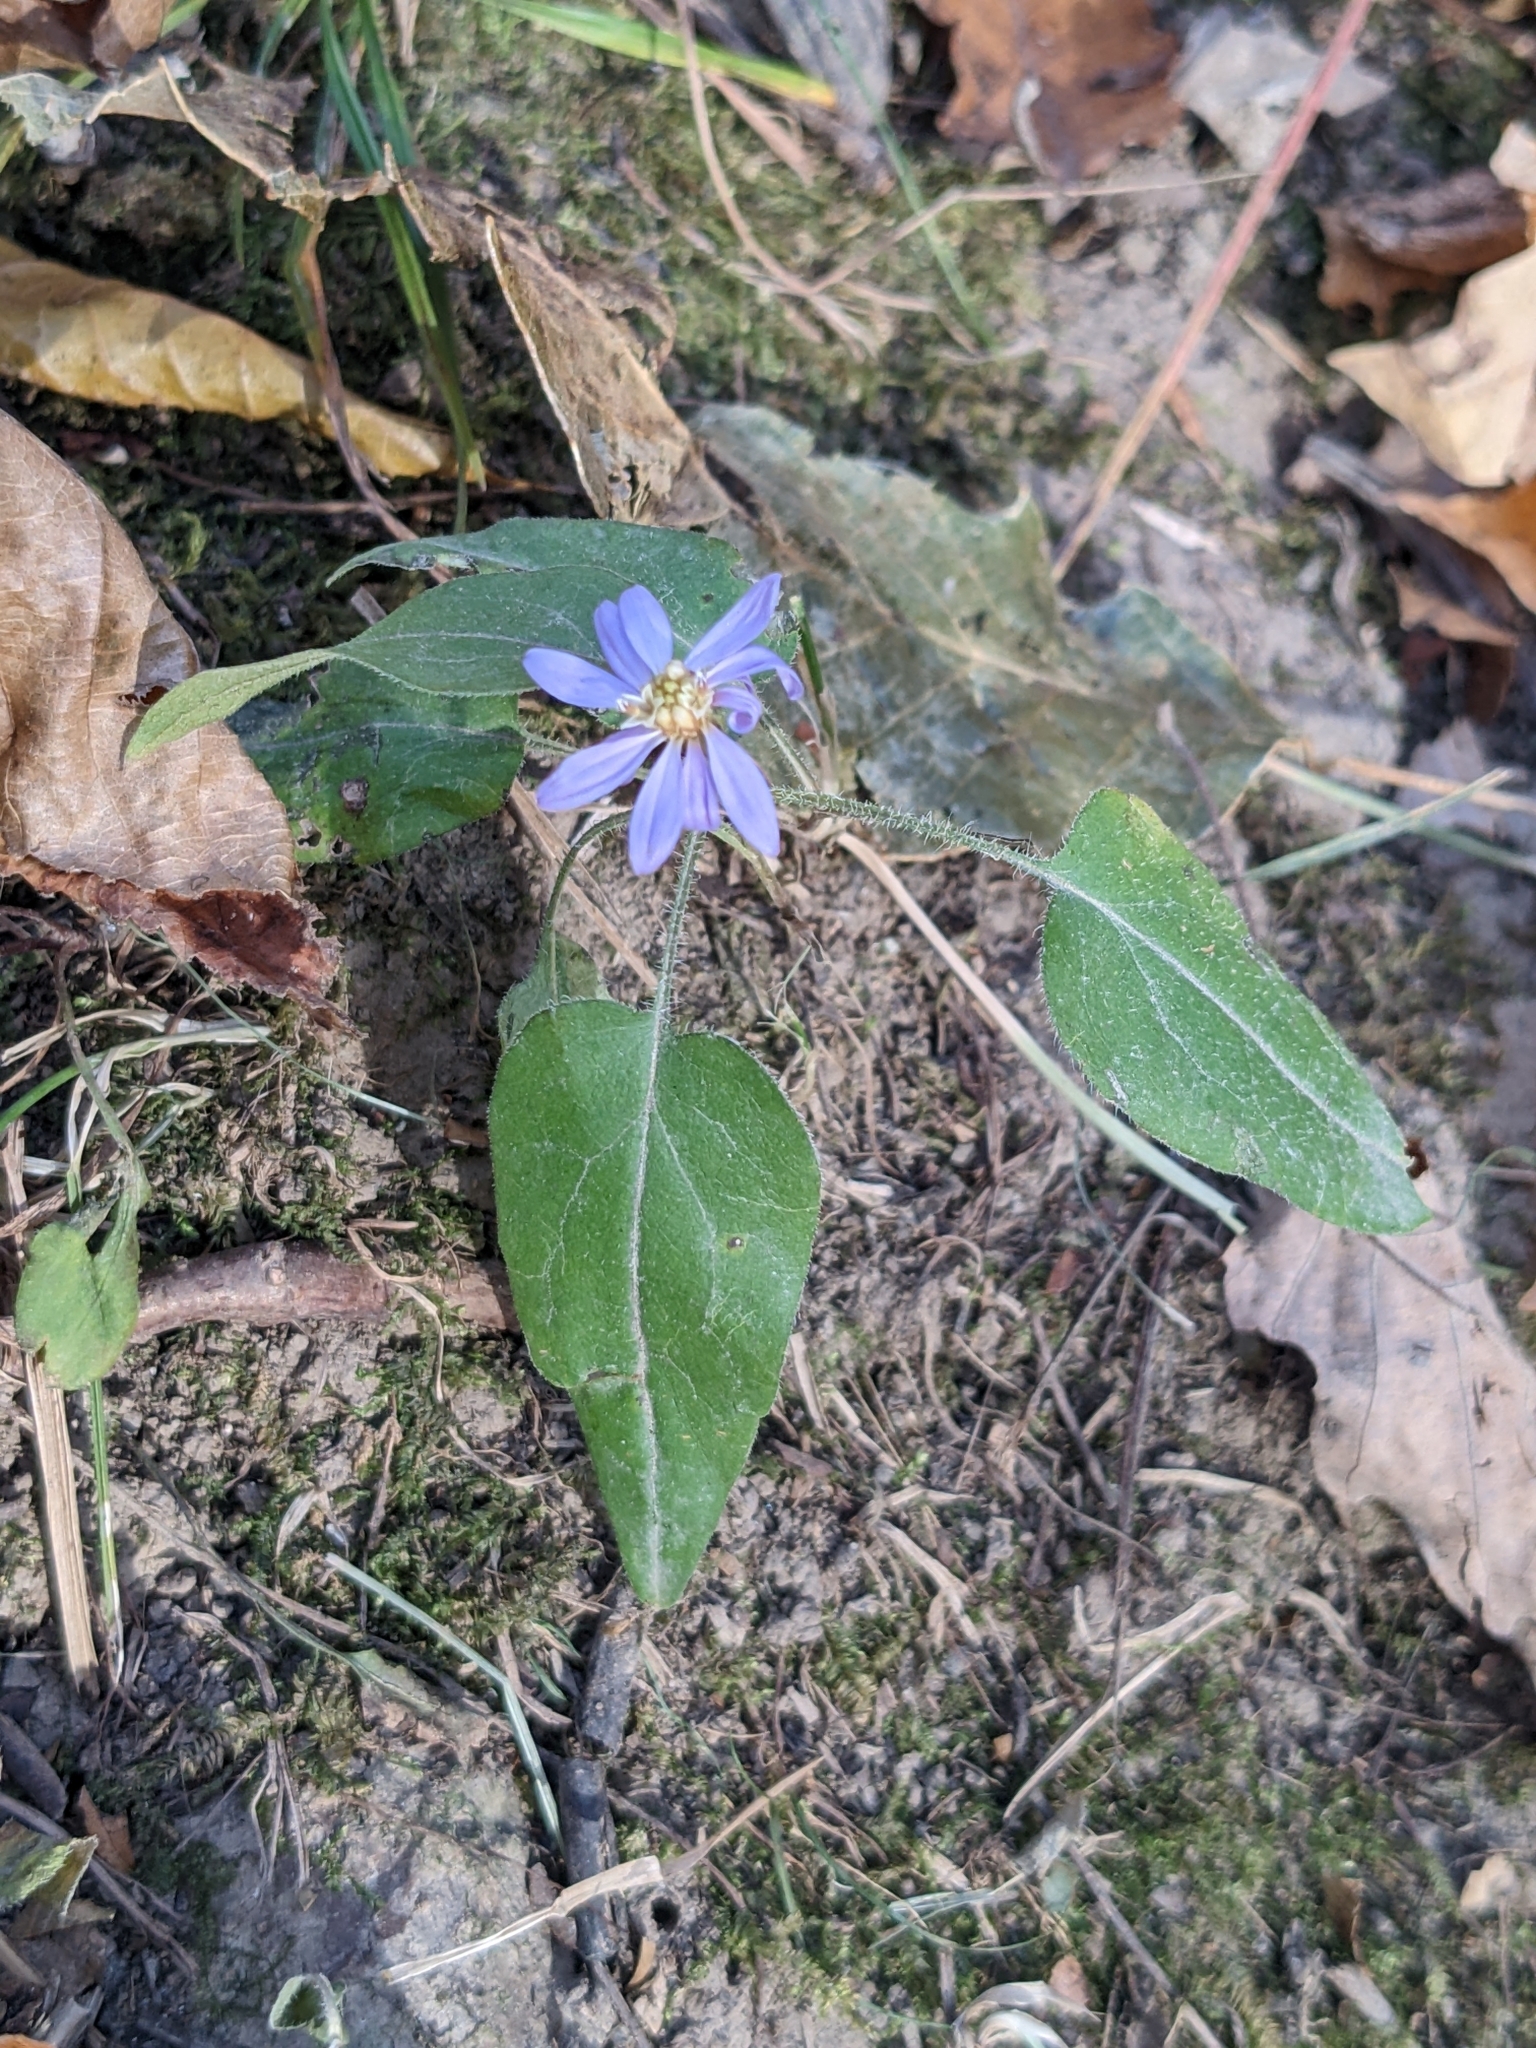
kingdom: Plantae
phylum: Tracheophyta
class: Magnoliopsida
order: Asterales
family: Asteraceae
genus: Symphyotrichum
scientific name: Symphyotrichum shortii
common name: Short's aster
